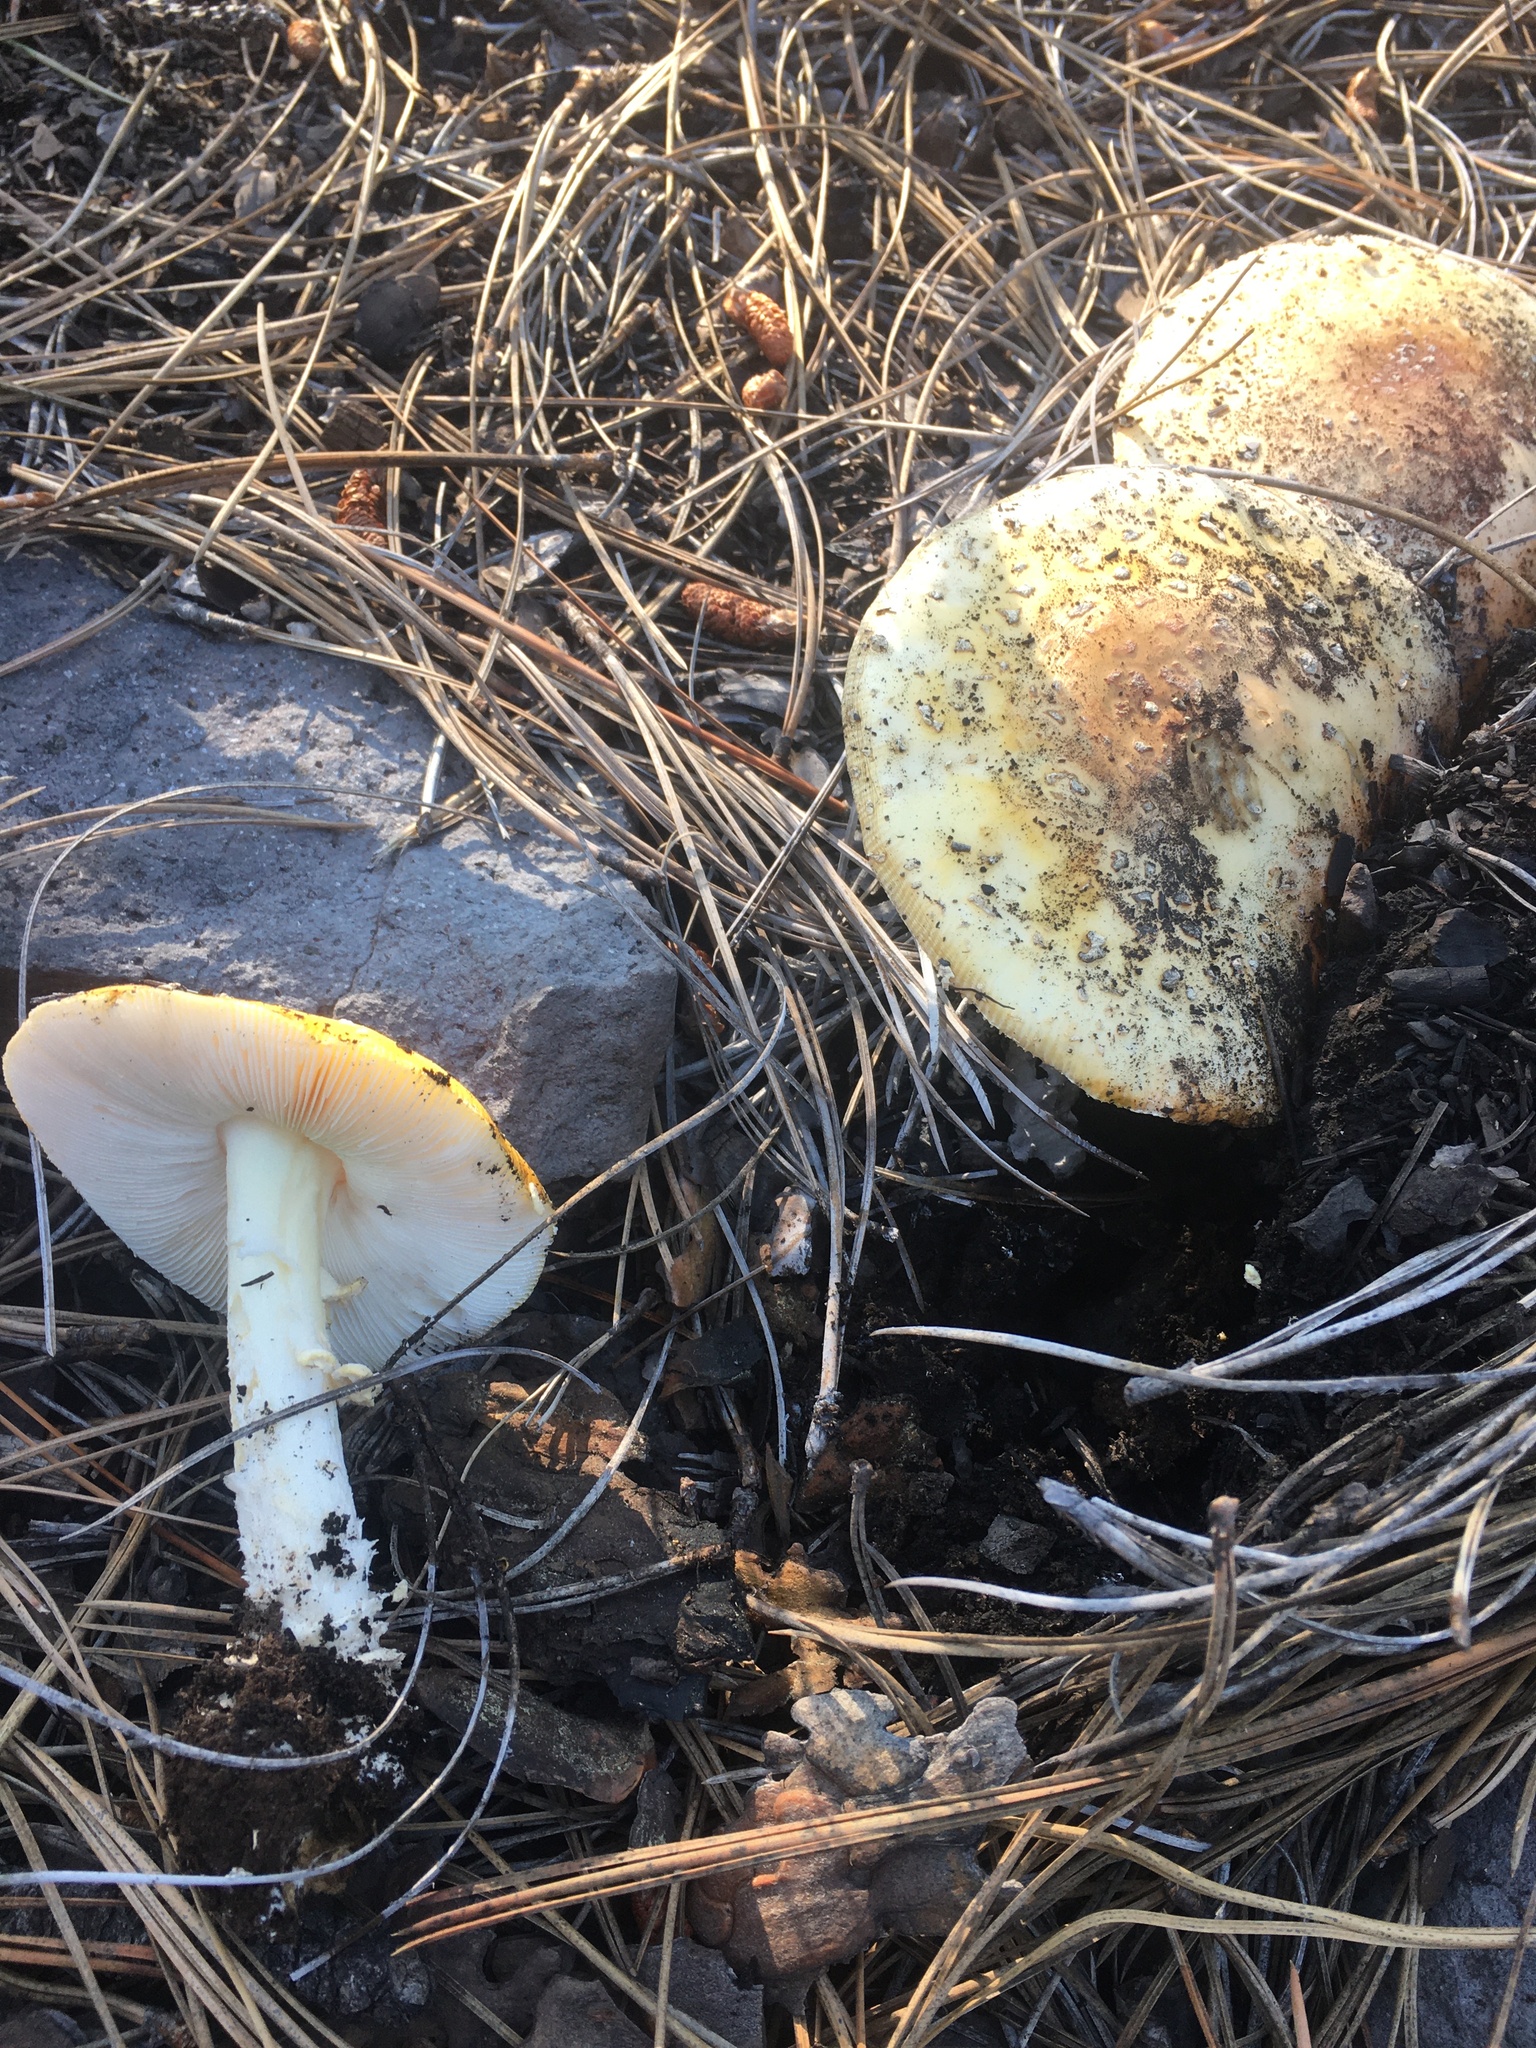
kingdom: Fungi
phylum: Basidiomycota
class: Agaricomycetes
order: Agaricales
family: Amanitaceae
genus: Amanita
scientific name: Amanita muscaria
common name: Fly agaric
